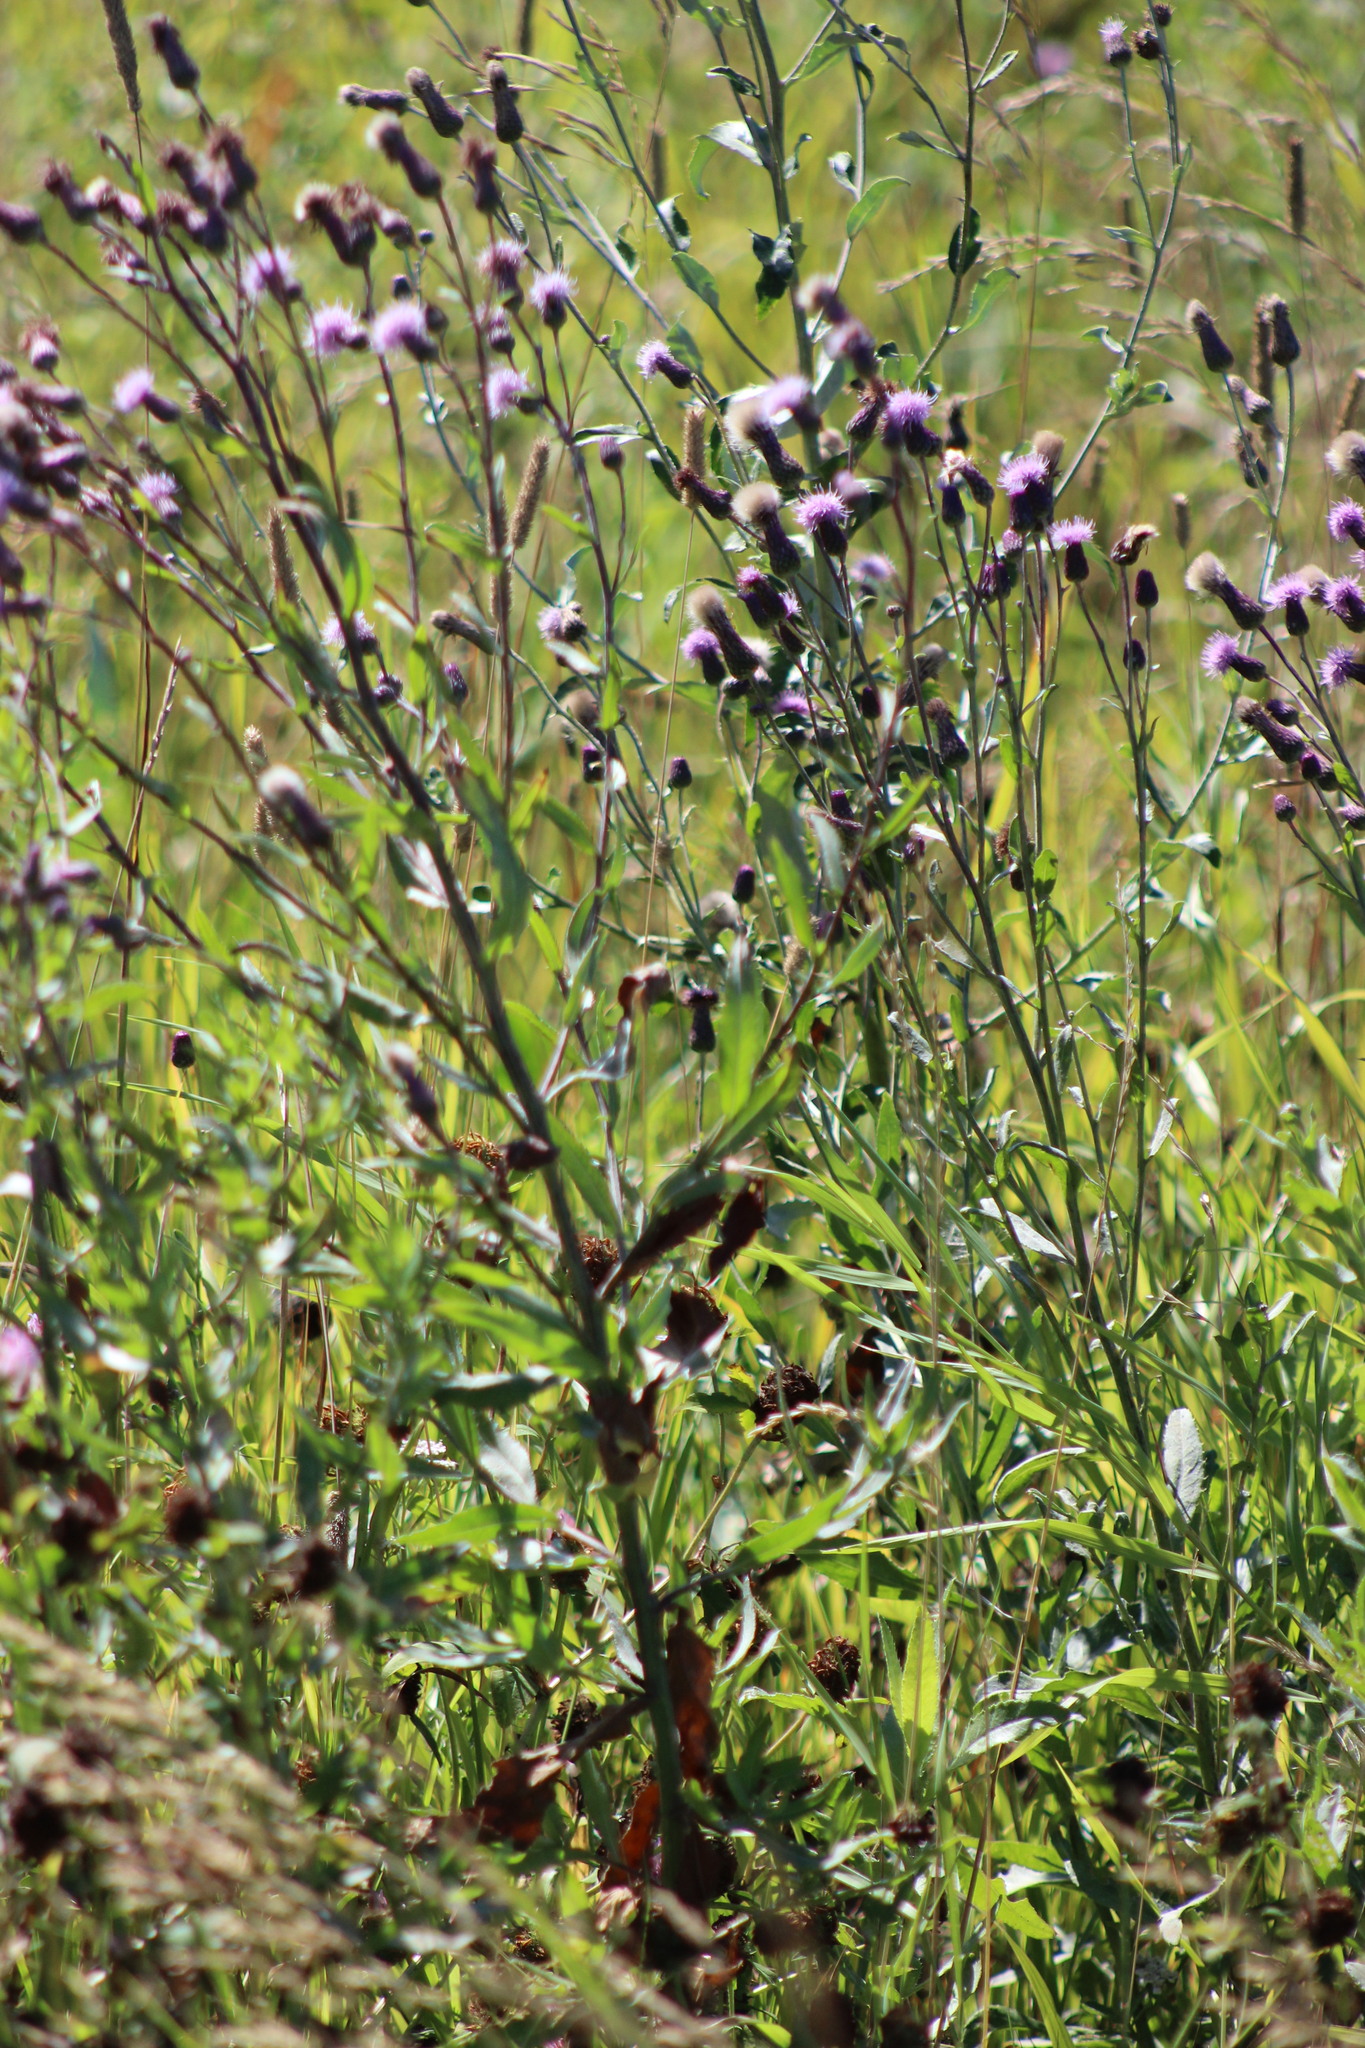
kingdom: Plantae
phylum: Tracheophyta
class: Magnoliopsida
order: Asterales
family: Asteraceae
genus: Cirsium
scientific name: Cirsium arvense
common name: Creeping thistle
